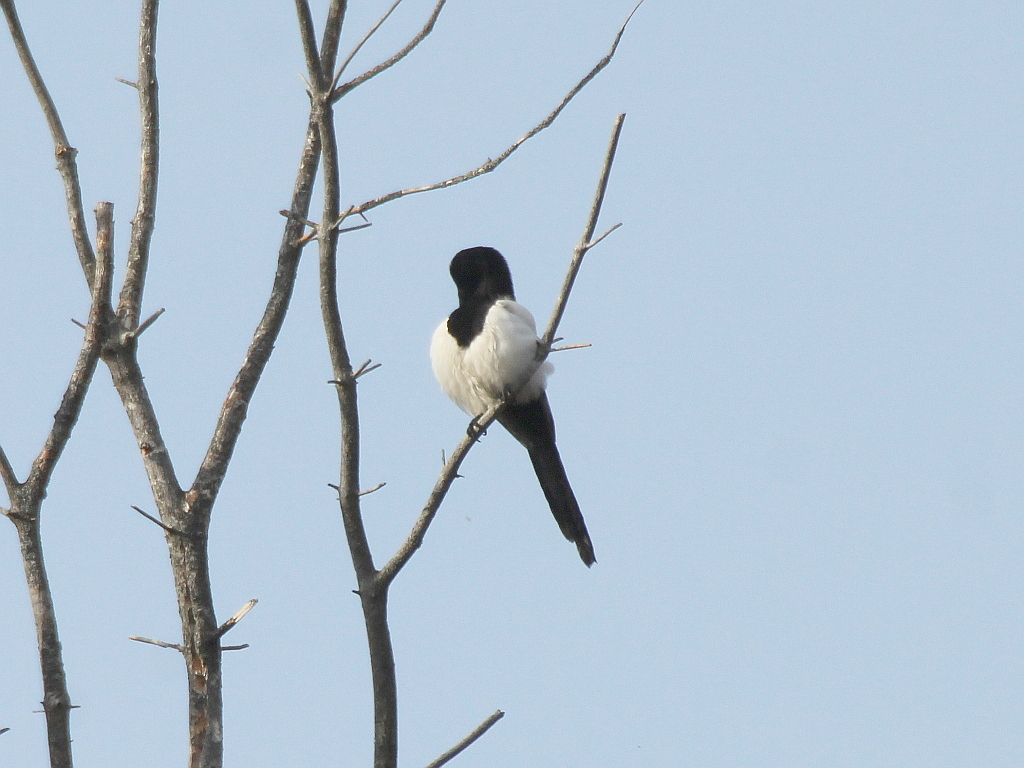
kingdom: Animalia
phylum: Chordata
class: Aves
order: Passeriformes
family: Corvidae
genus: Pica
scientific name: Pica pica
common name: Eurasian magpie
